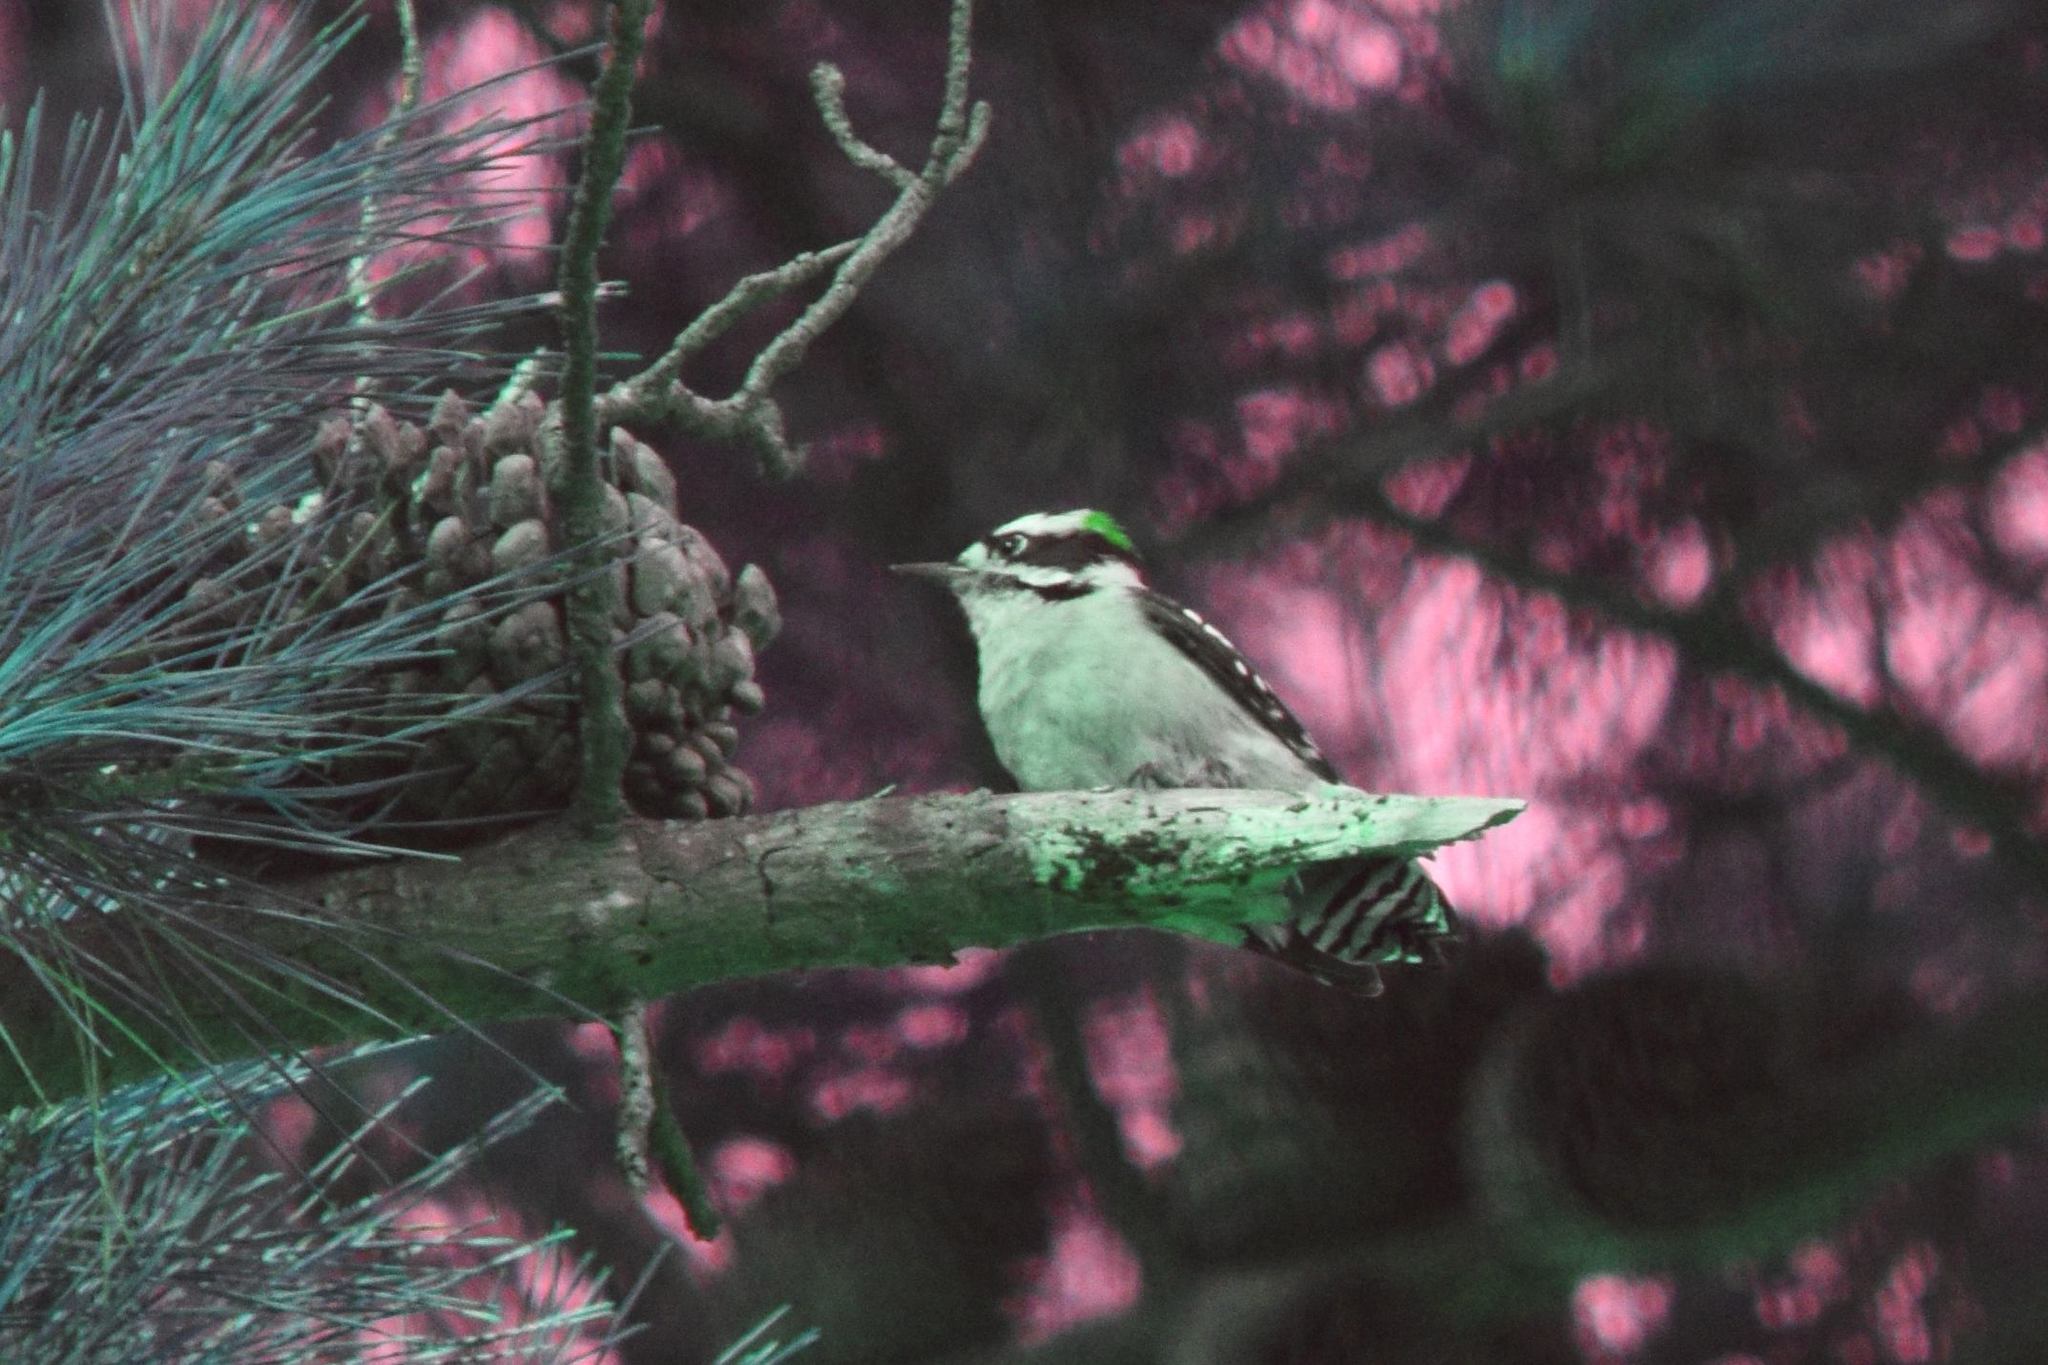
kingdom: Animalia
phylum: Chordata
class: Aves
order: Piciformes
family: Picidae
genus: Dryobates
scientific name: Dryobates pubescens
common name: Downy woodpecker
